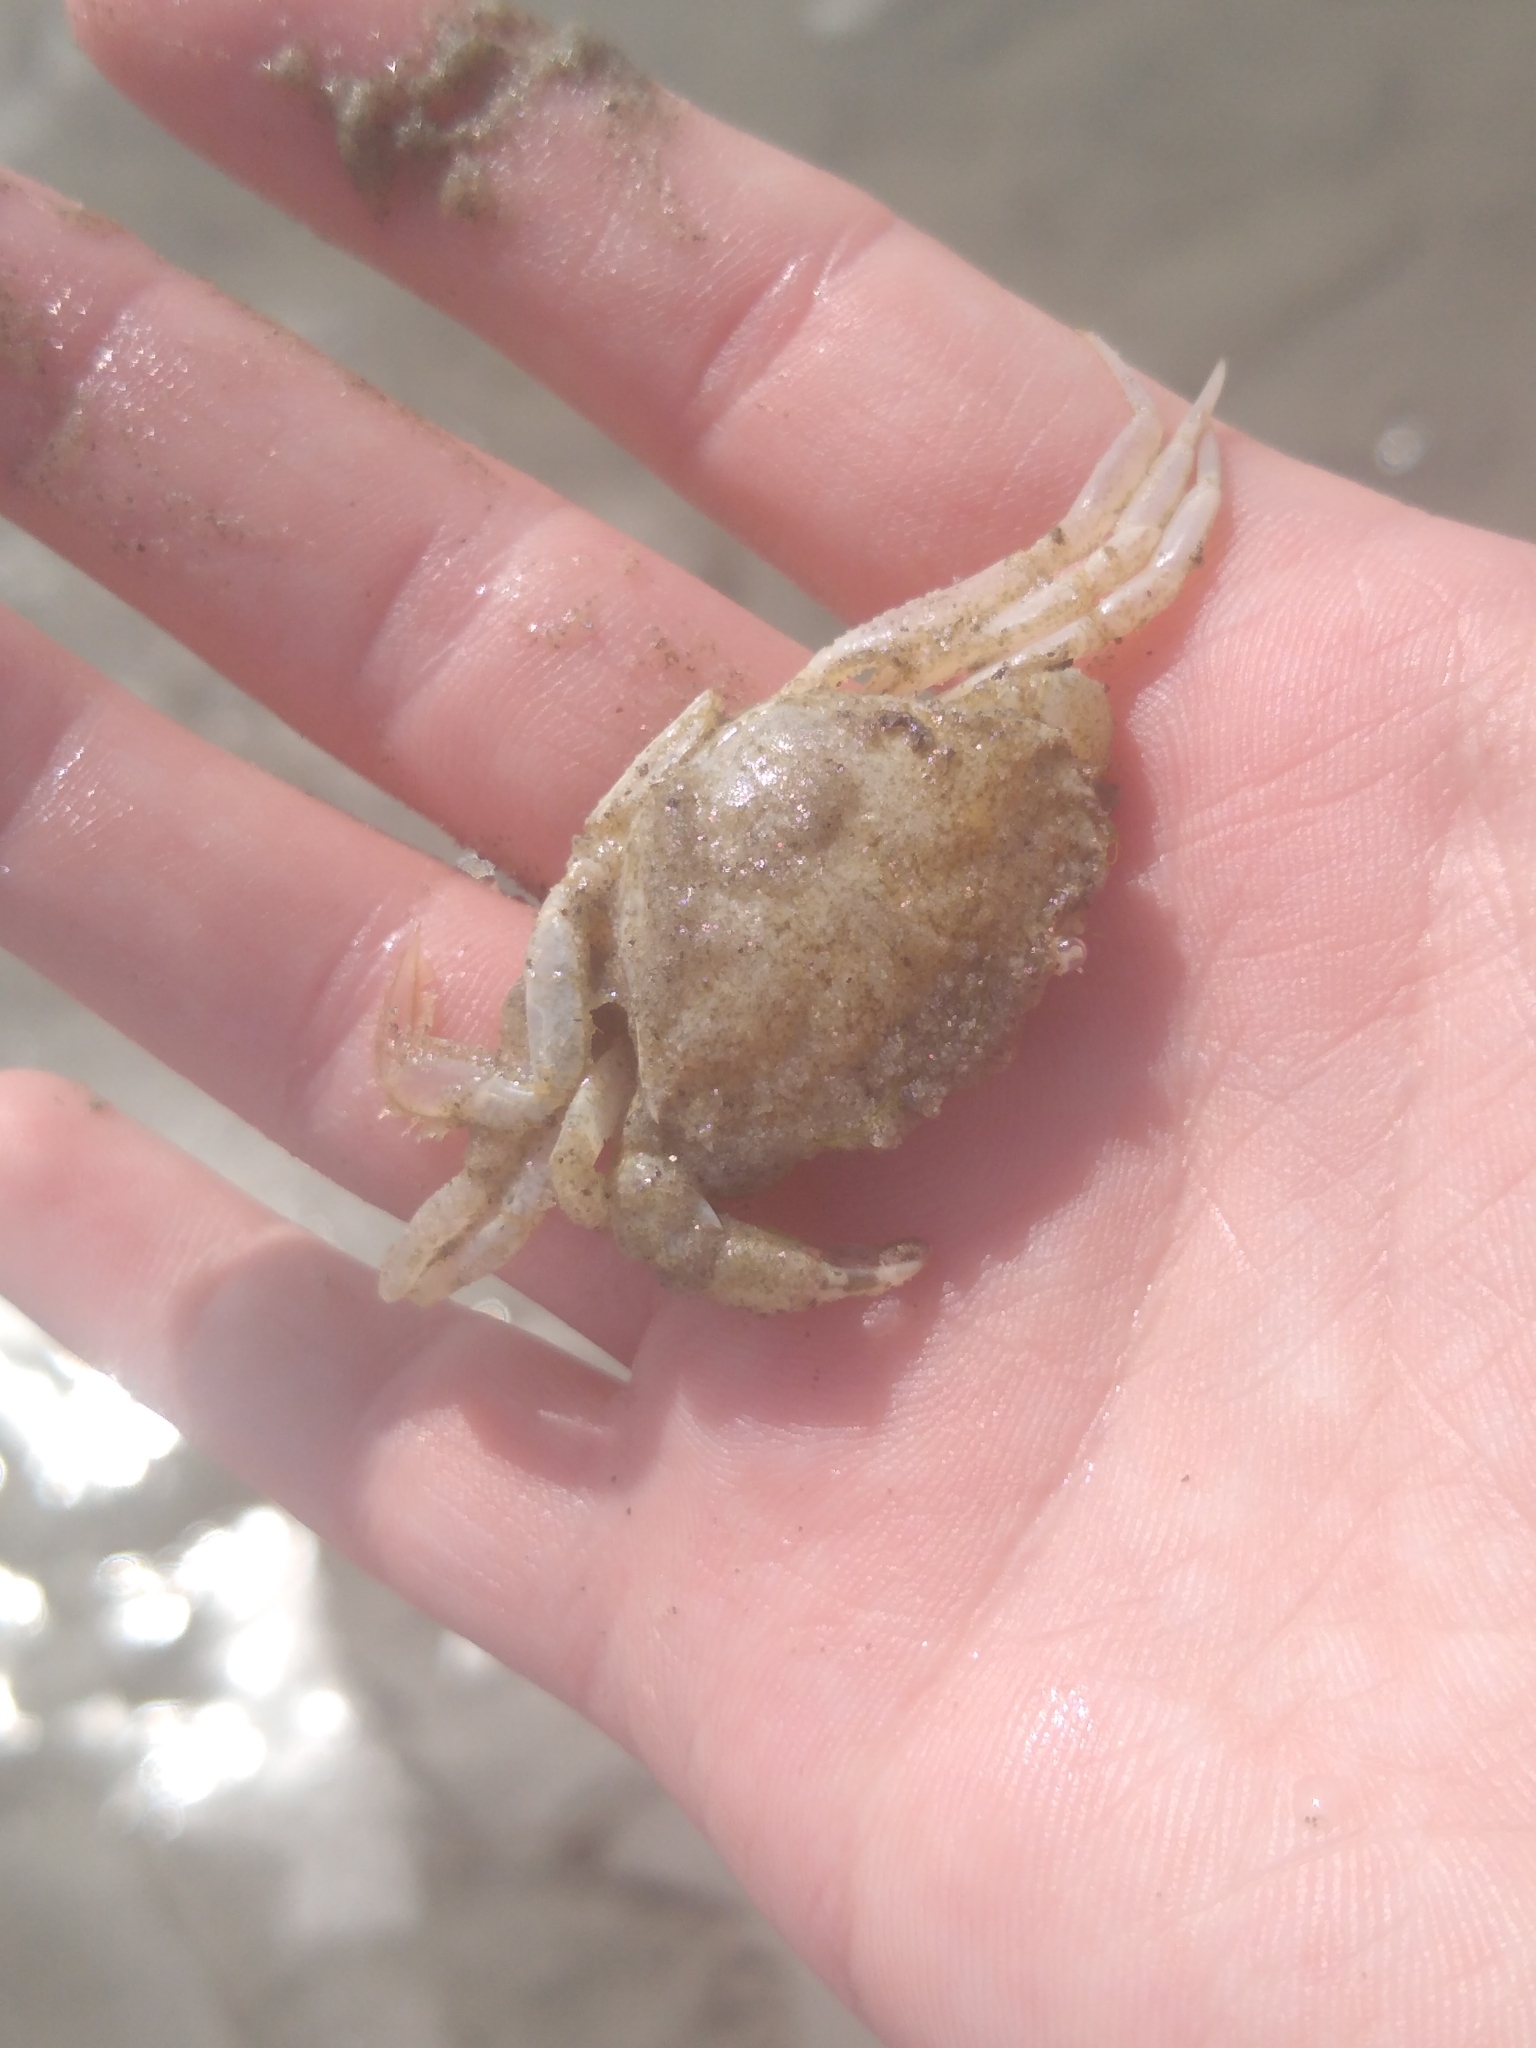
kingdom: Animalia
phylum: Arthropoda
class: Malacostraca
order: Decapoda
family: Carcinidae
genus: Carcinus
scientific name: Carcinus maenas
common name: European green crab
